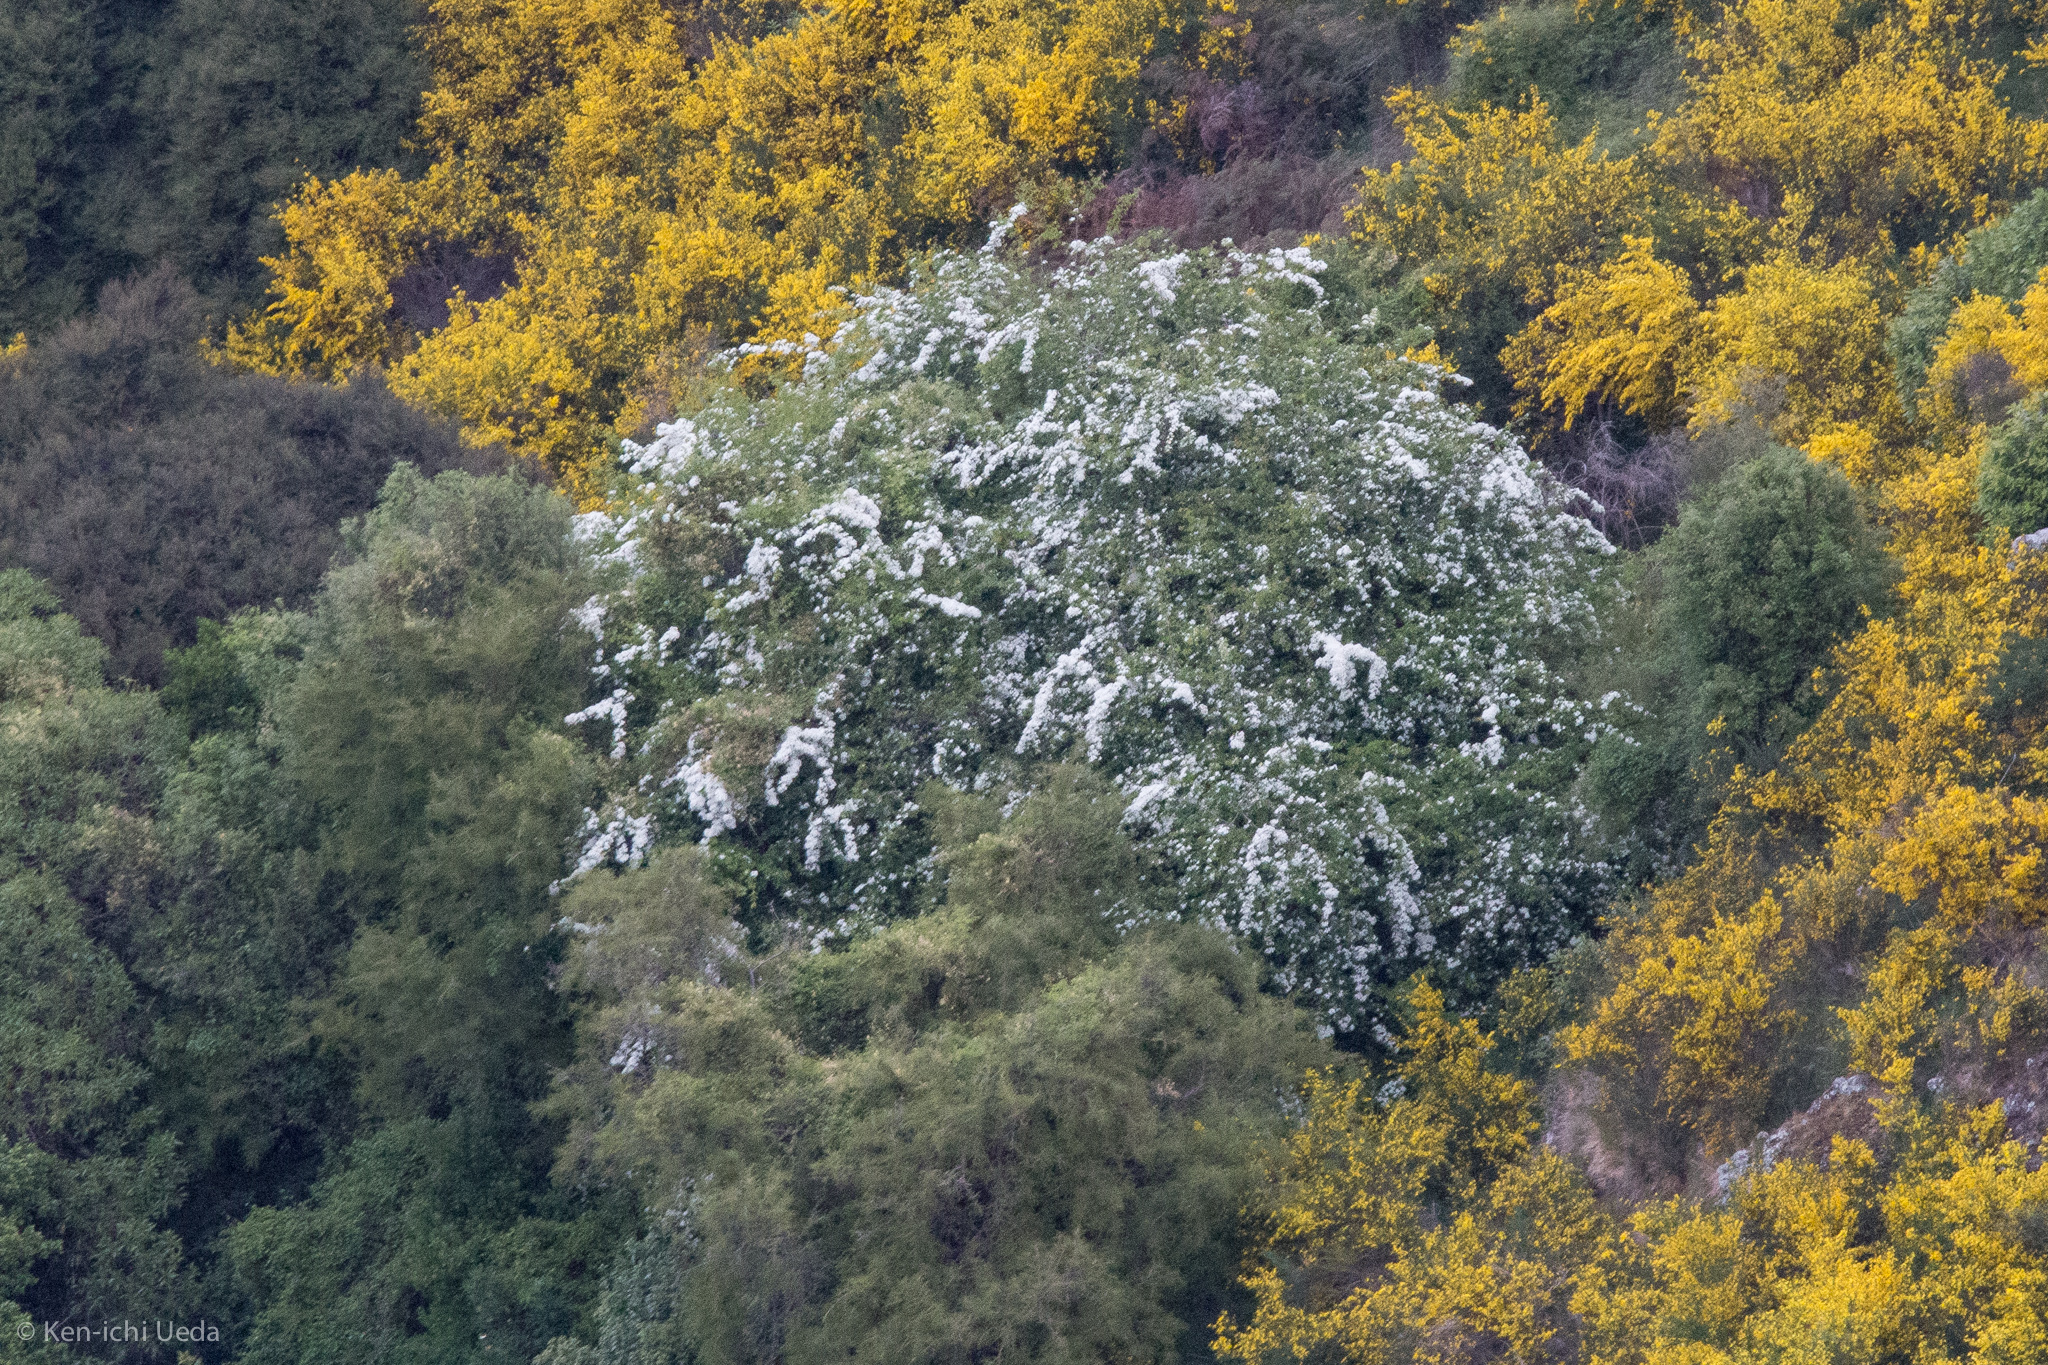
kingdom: Plantae
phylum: Tracheophyta
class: Magnoliopsida
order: Rosales
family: Rosaceae
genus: Crataegus
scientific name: Crataegus monogyna
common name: Hawthorn
